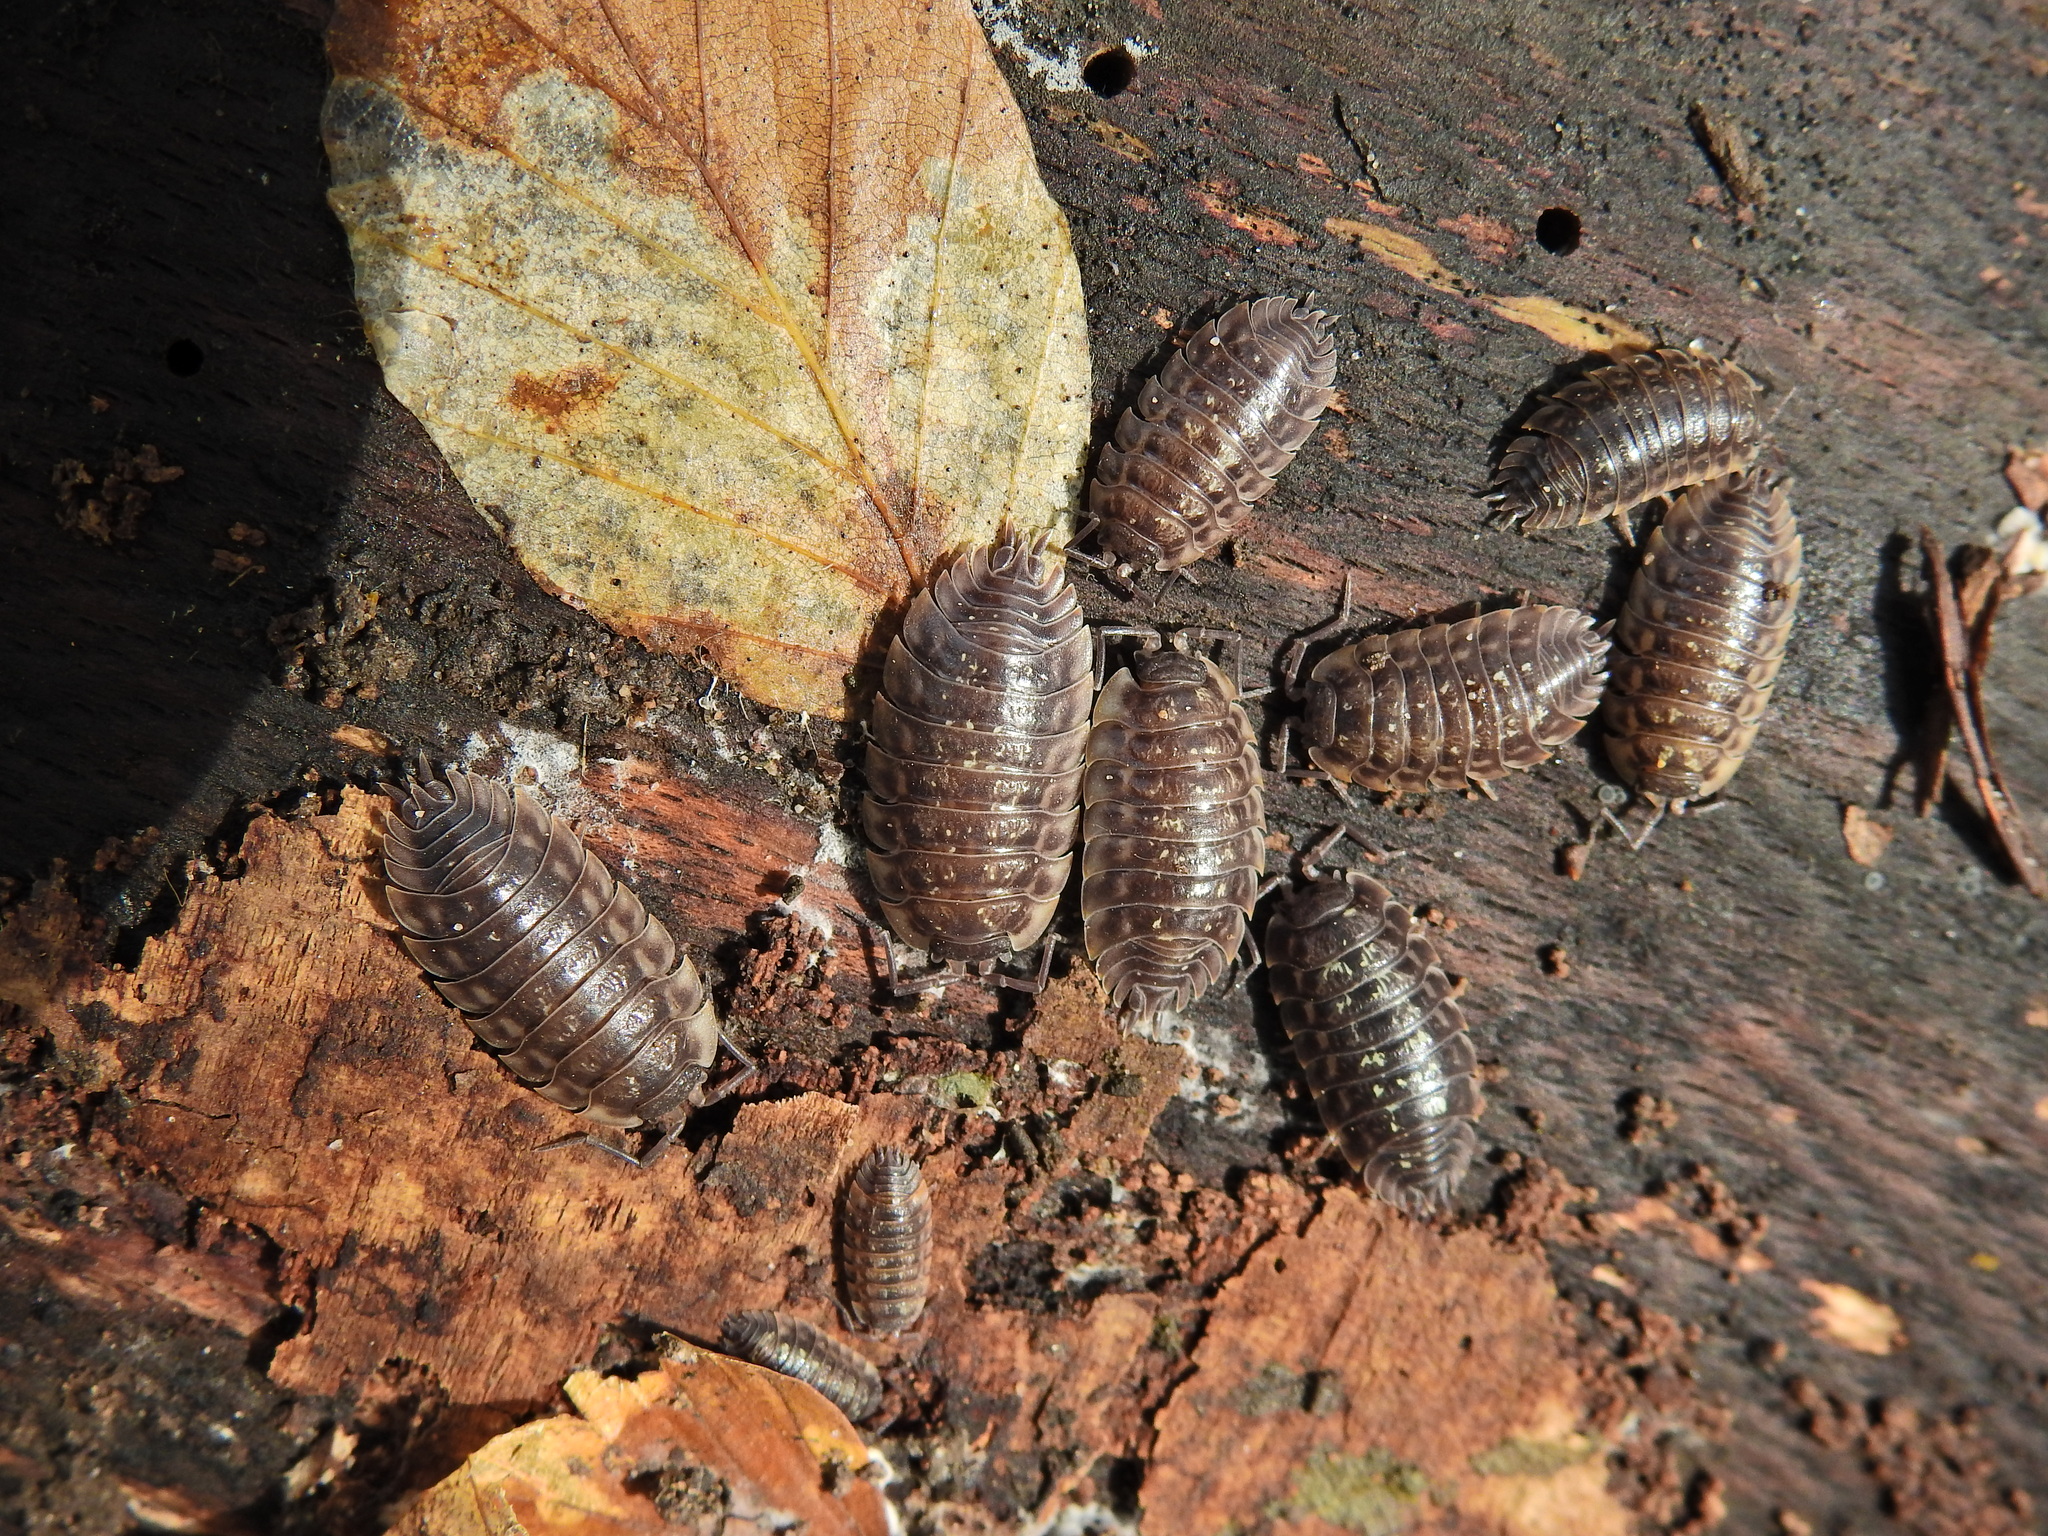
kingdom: Animalia
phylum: Arthropoda
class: Malacostraca
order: Isopoda
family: Oniscidae
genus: Oniscus
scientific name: Oniscus asellus
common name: Common shiny woodlouse
